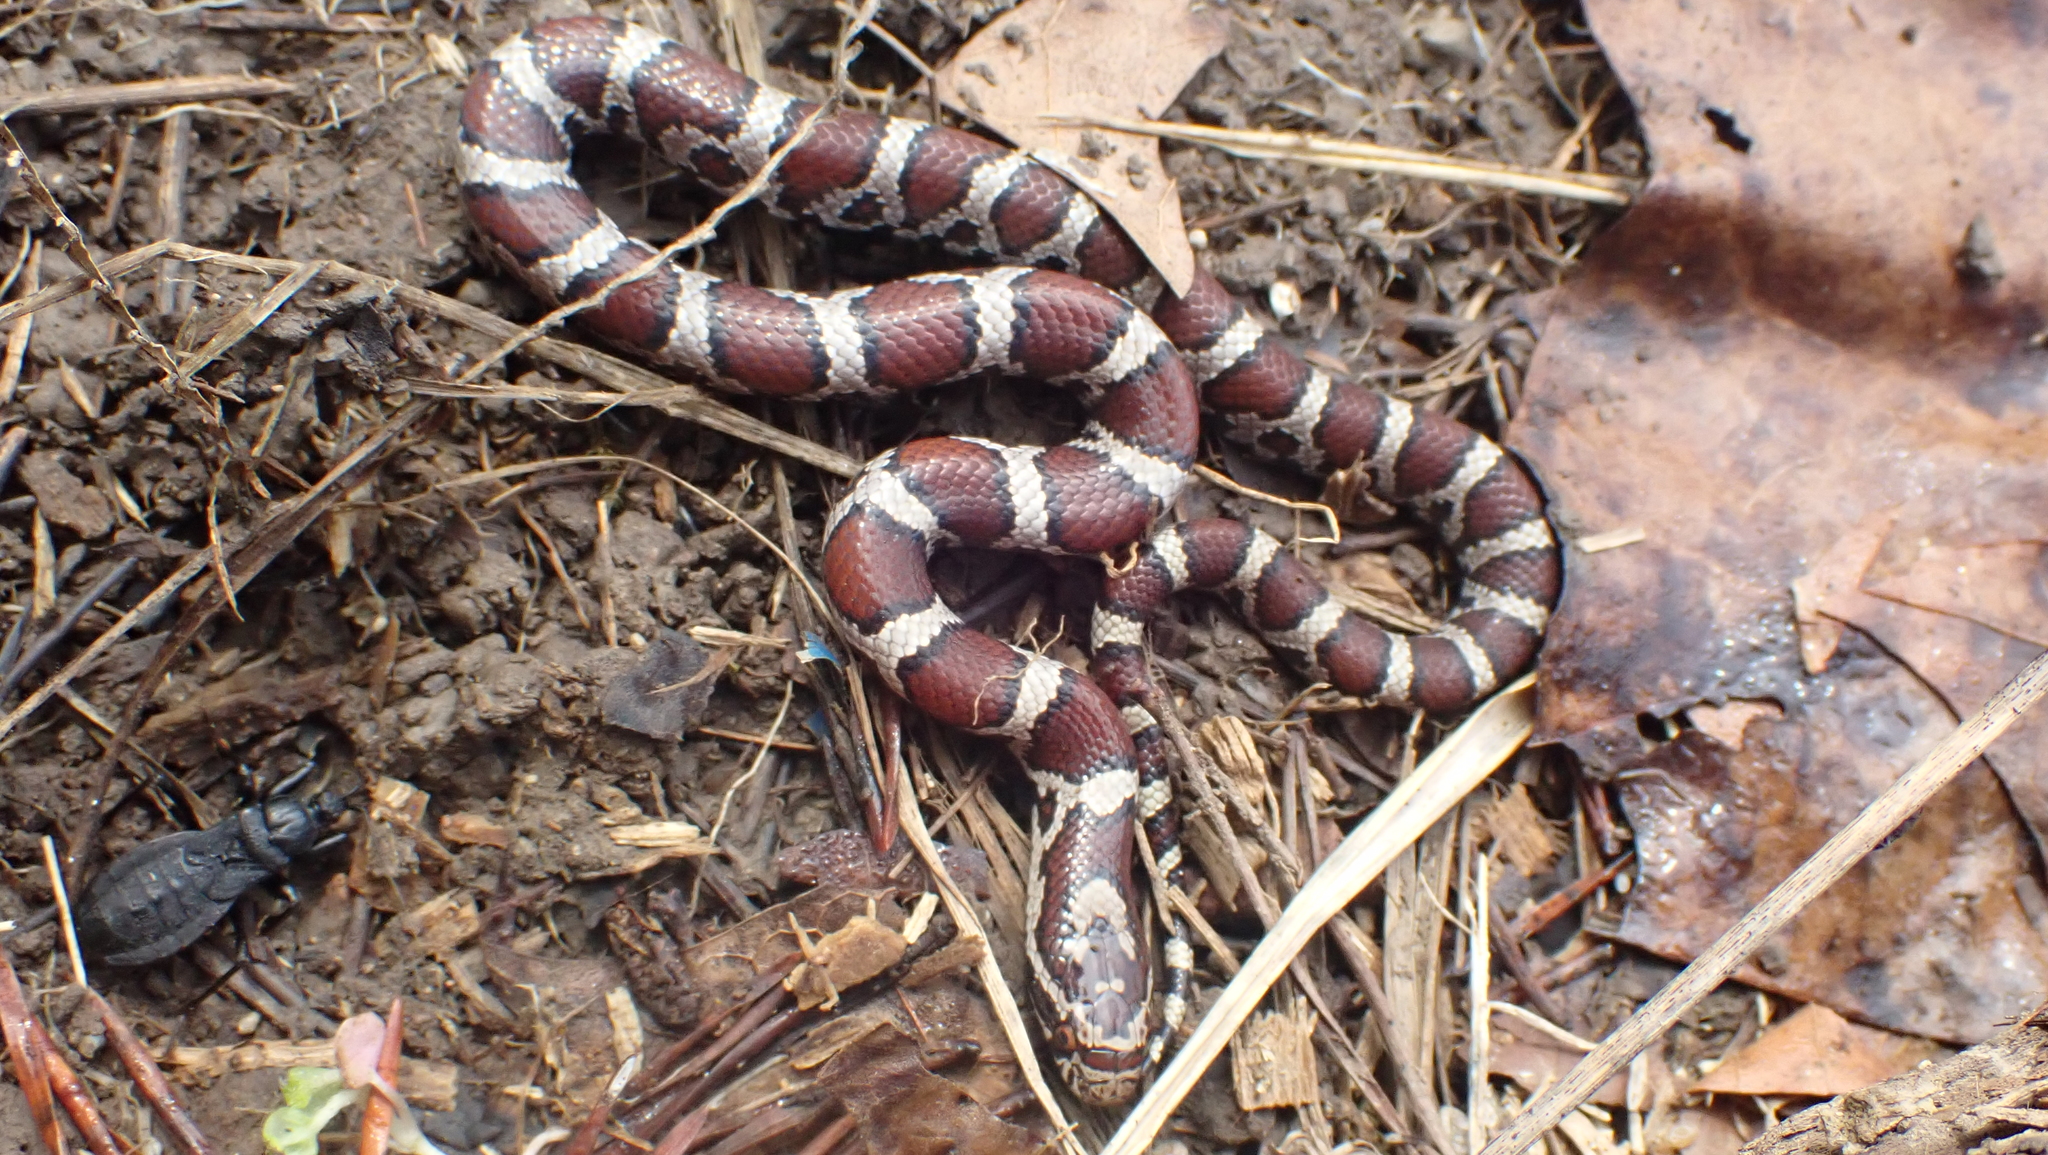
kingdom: Animalia
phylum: Chordata
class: Squamata
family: Colubridae
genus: Lampropeltis
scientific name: Lampropeltis triangulum
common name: Eastern milksnake
